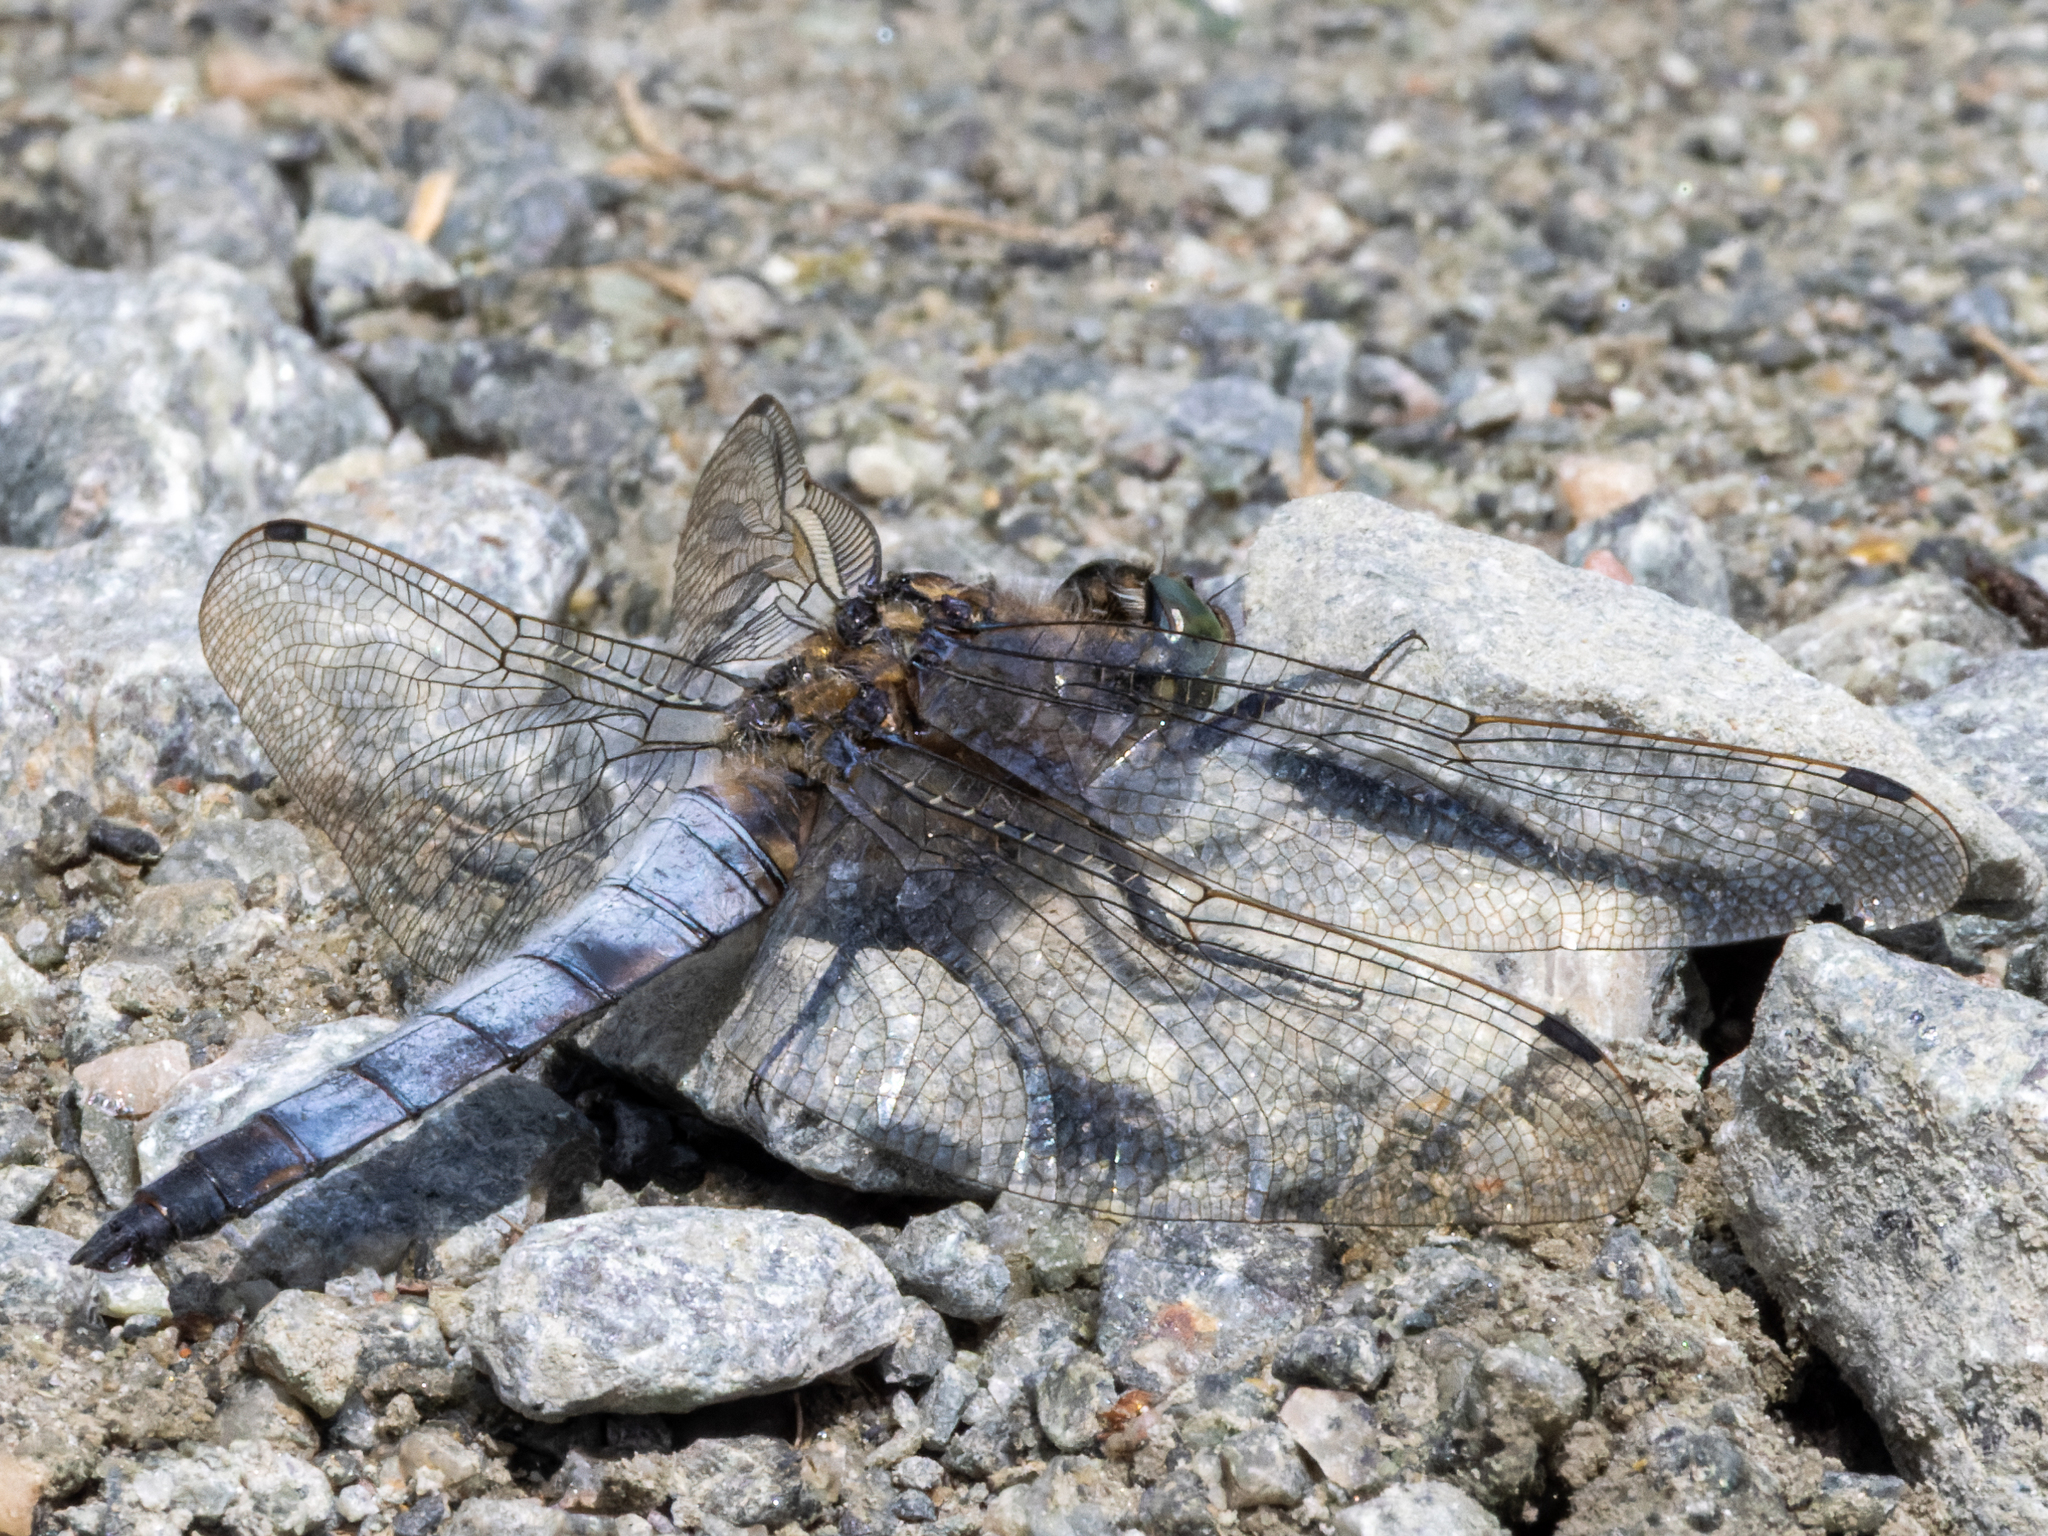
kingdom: Animalia
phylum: Arthropoda
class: Insecta
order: Odonata
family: Libellulidae
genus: Orthetrum
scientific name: Orthetrum cancellatum
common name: Black-tailed skimmer
